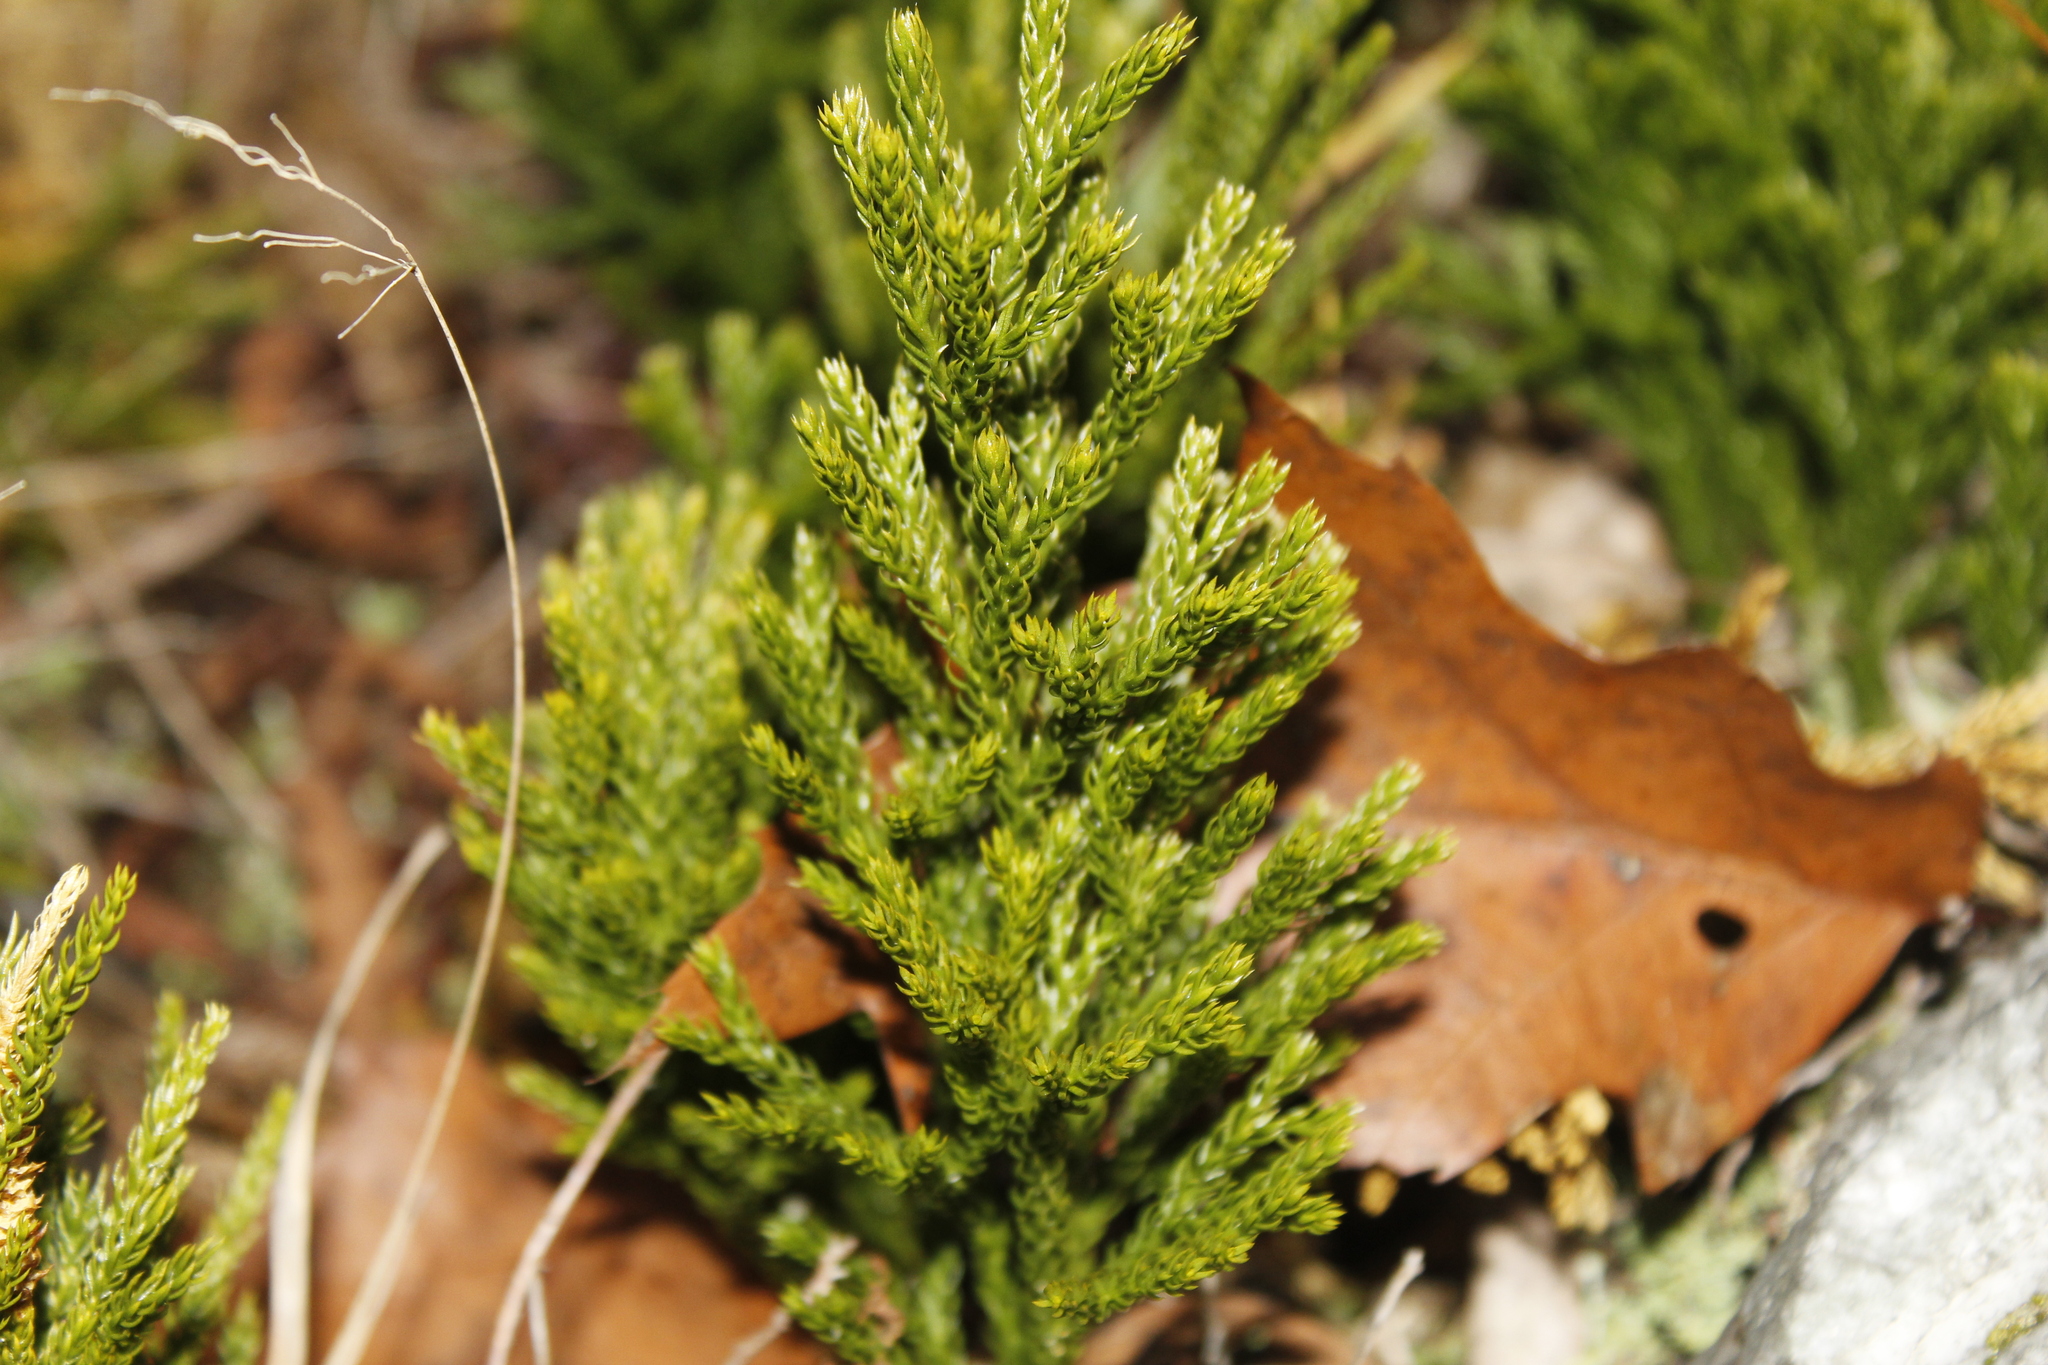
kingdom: Plantae
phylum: Tracheophyta
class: Lycopodiopsida
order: Lycopodiales
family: Lycopodiaceae
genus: Dendrolycopodium
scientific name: Dendrolycopodium hickeyi
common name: Hickey's clubmoss
